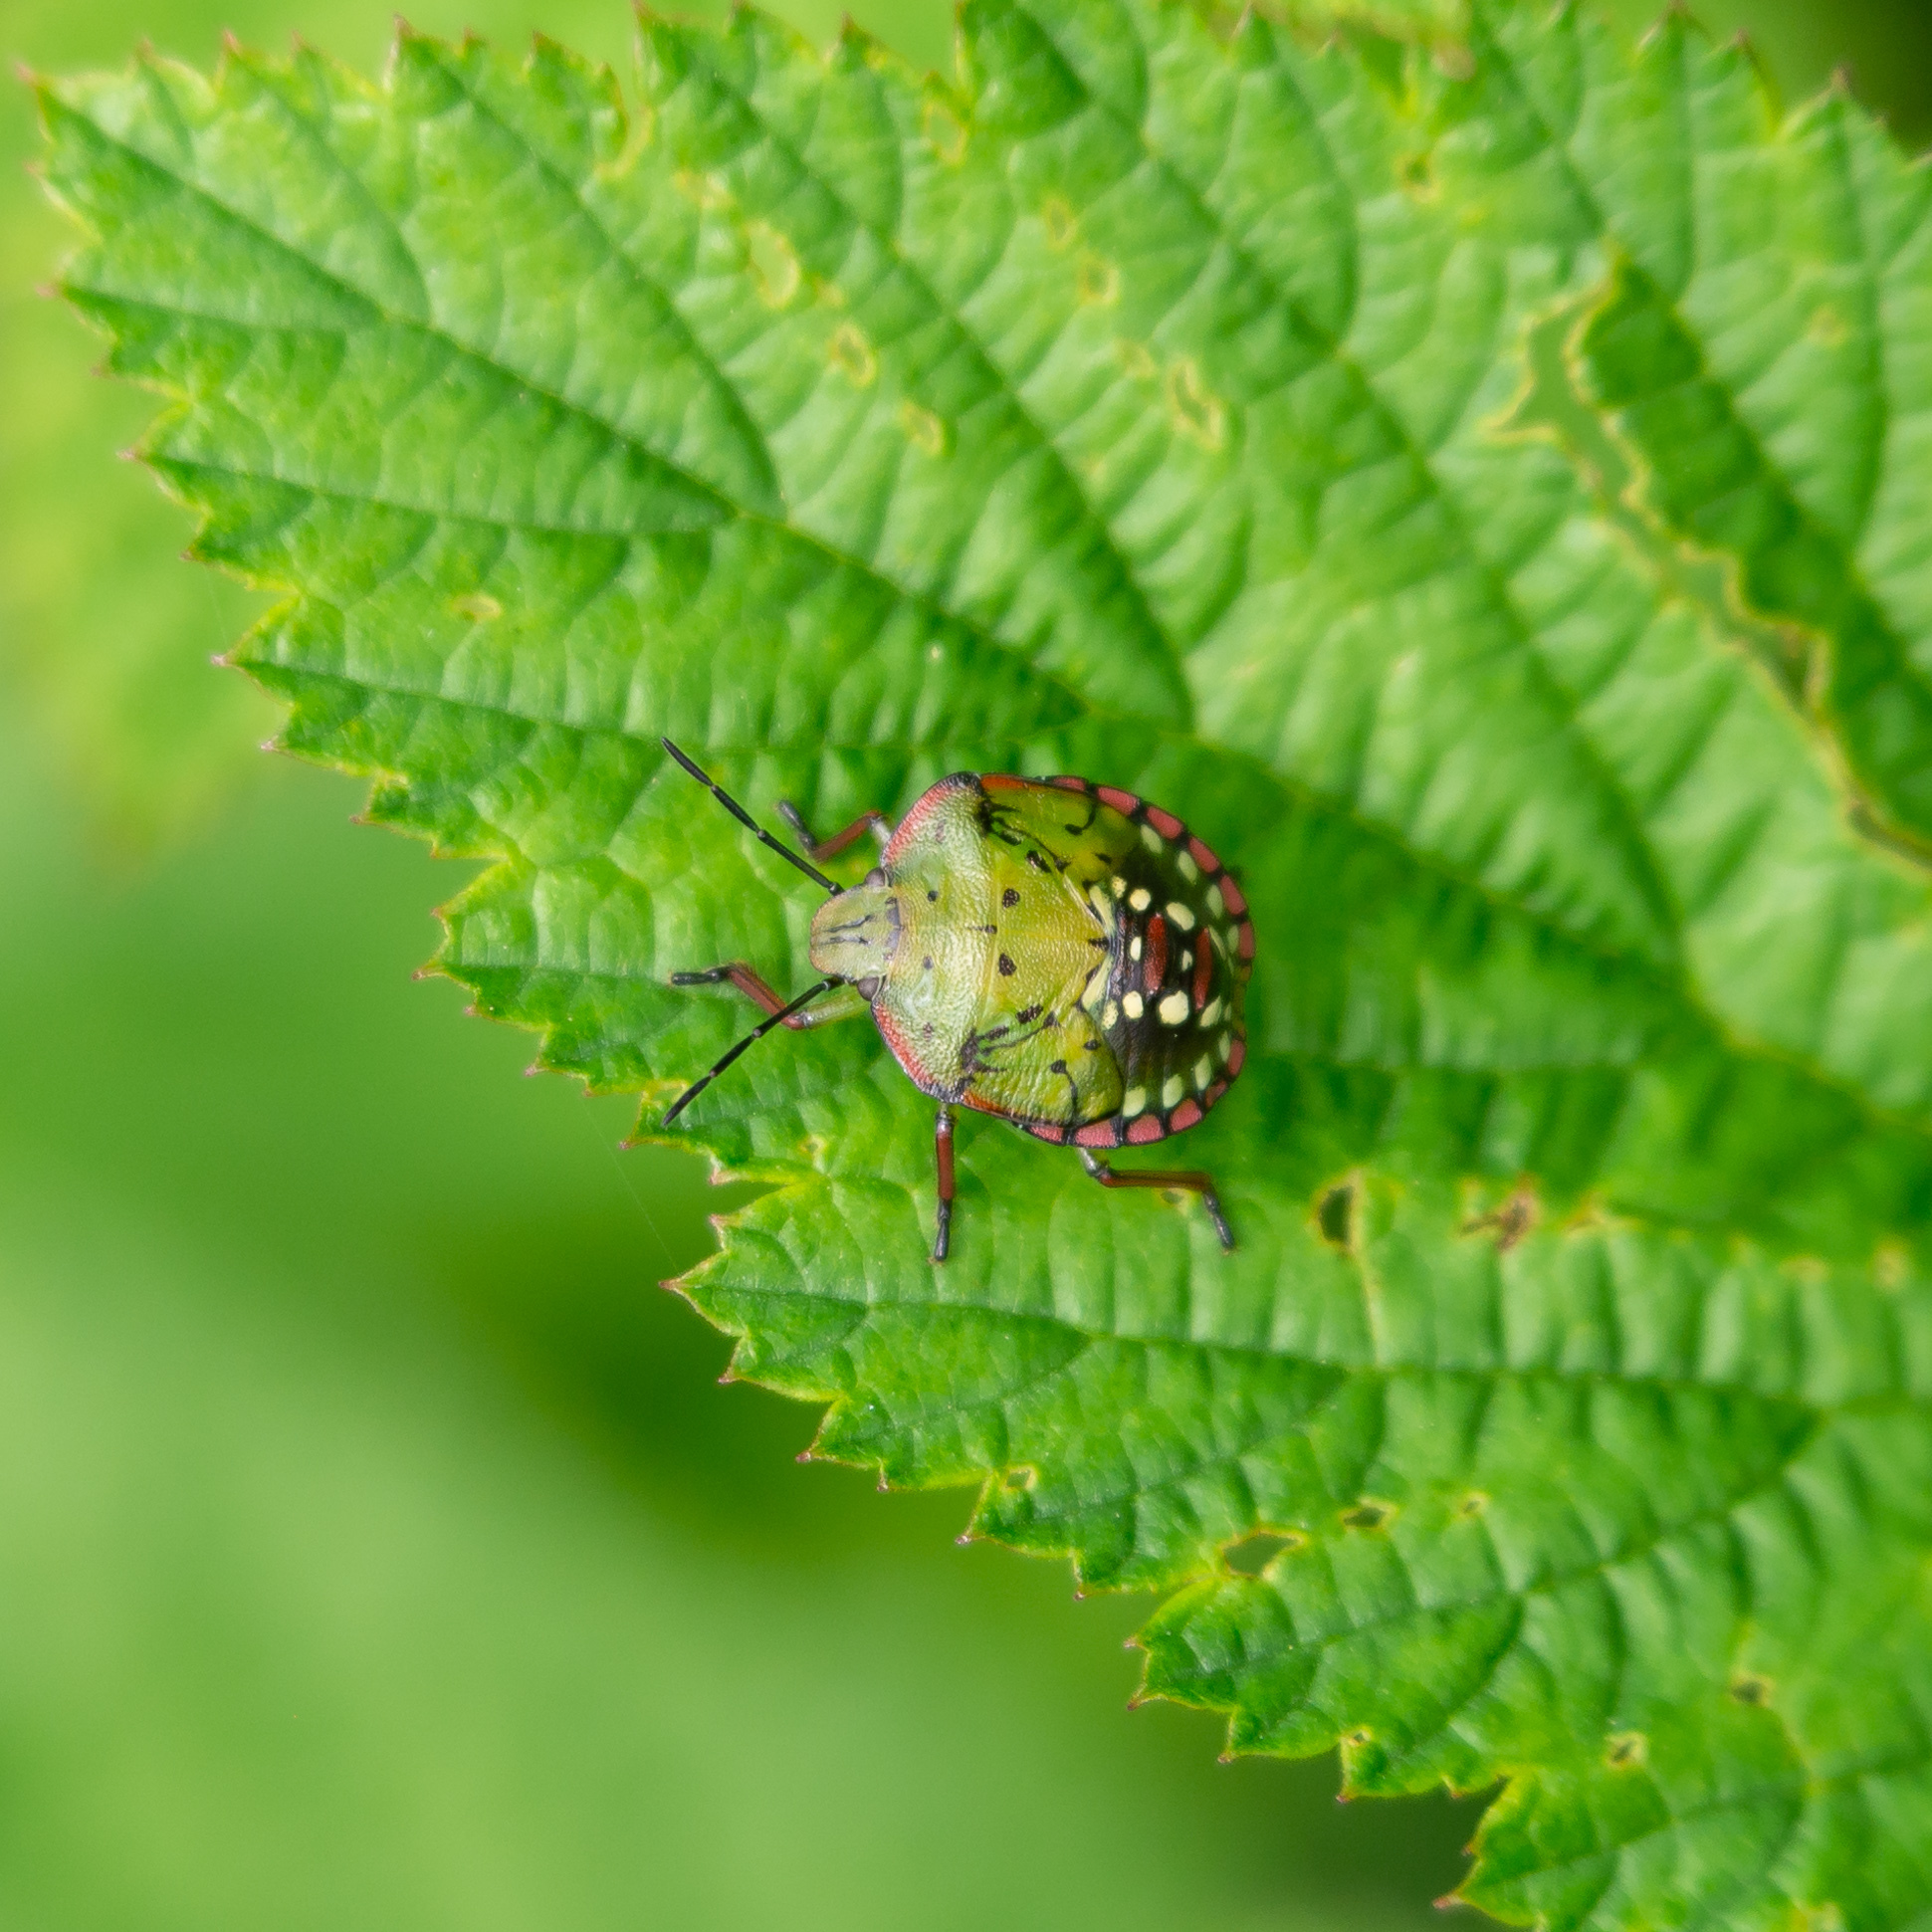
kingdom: Animalia
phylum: Arthropoda
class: Insecta
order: Hemiptera
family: Pentatomidae
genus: Nezara
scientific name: Nezara viridula
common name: Southern green stink bug
